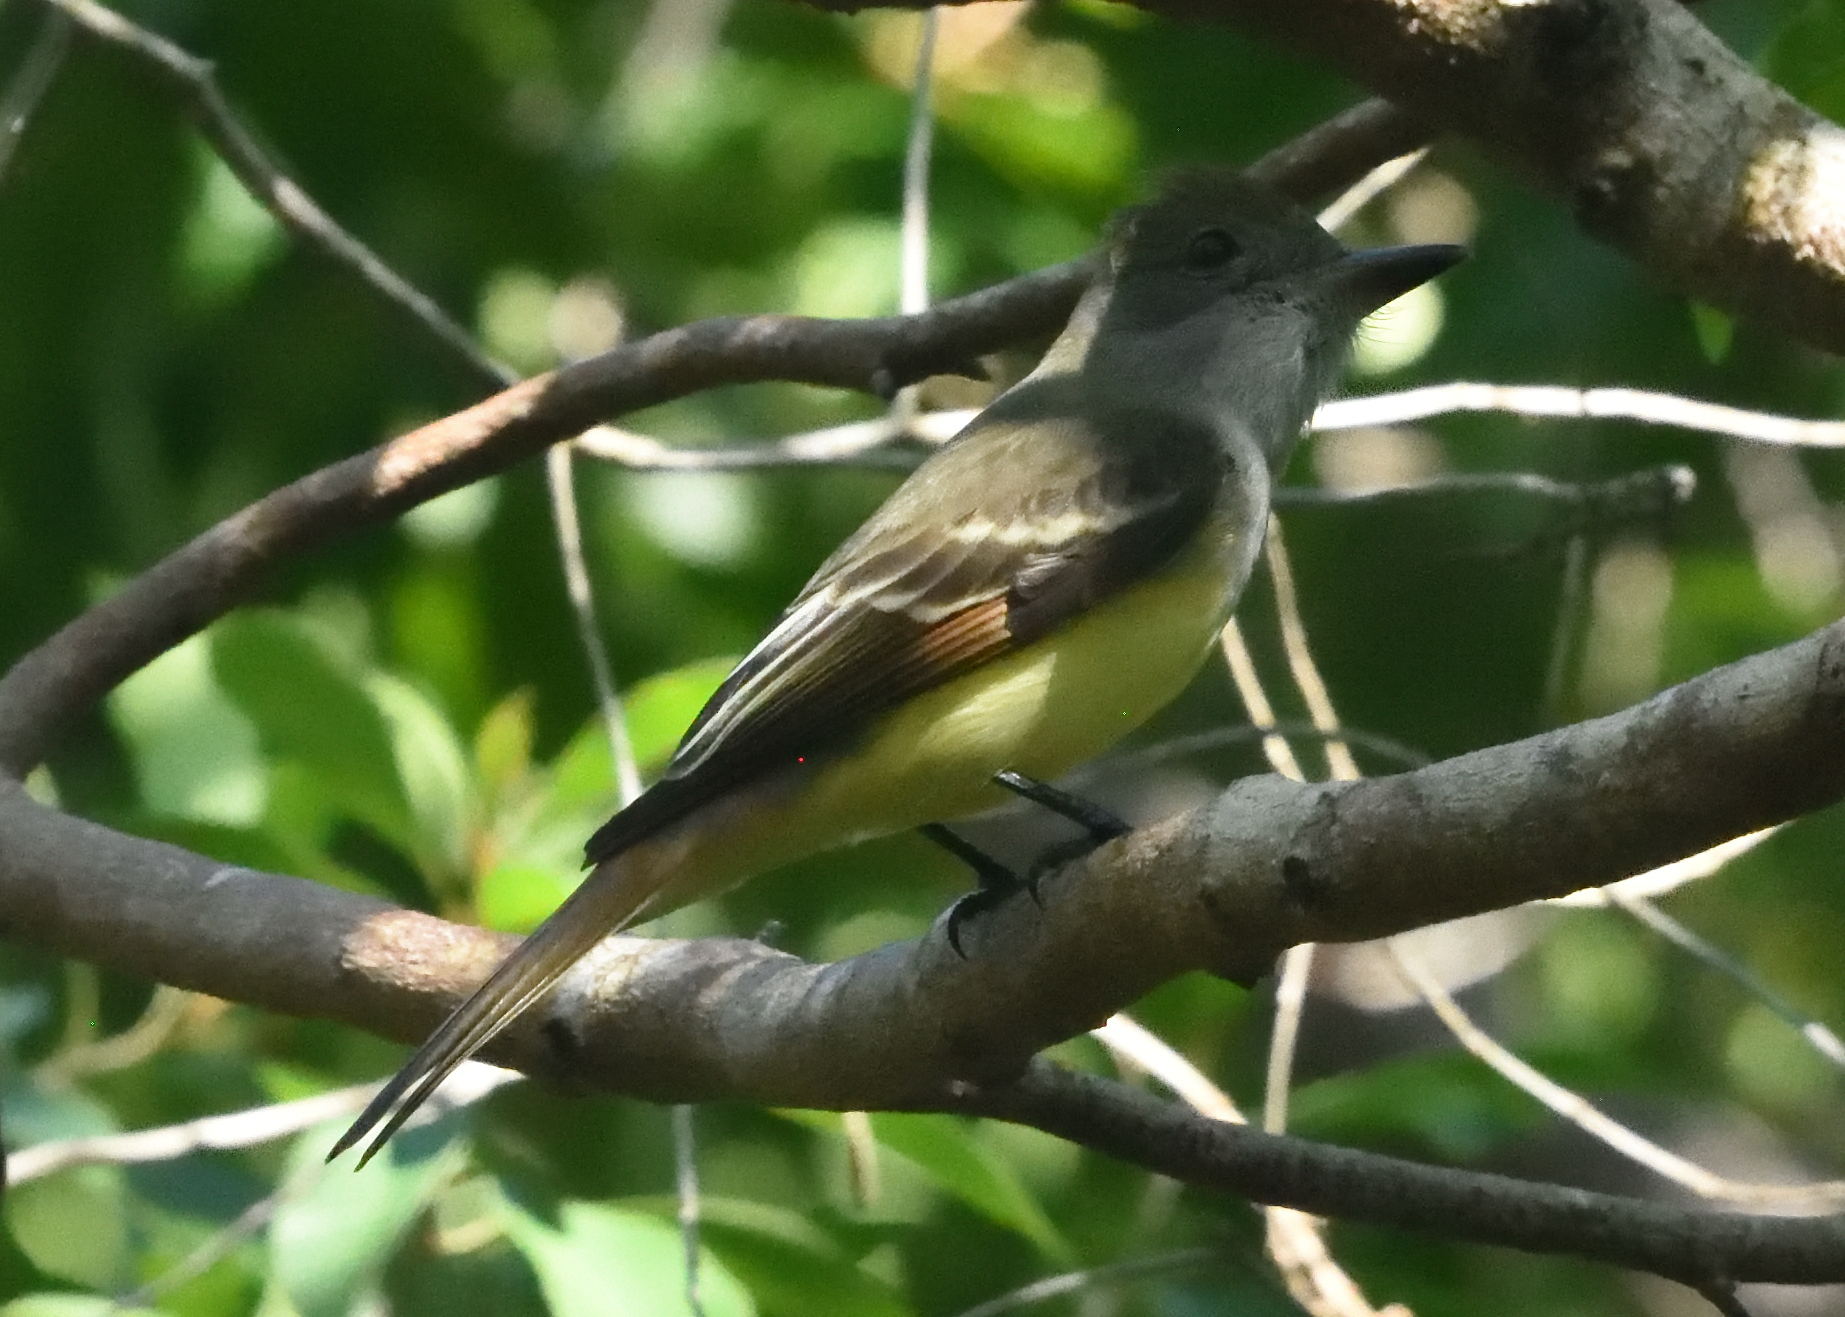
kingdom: Animalia
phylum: Chordata
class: Aves
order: Passeriformes
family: Tyrannidae
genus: Myiarchus
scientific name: Myiarchus crinitus
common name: Great crested flycatcher
